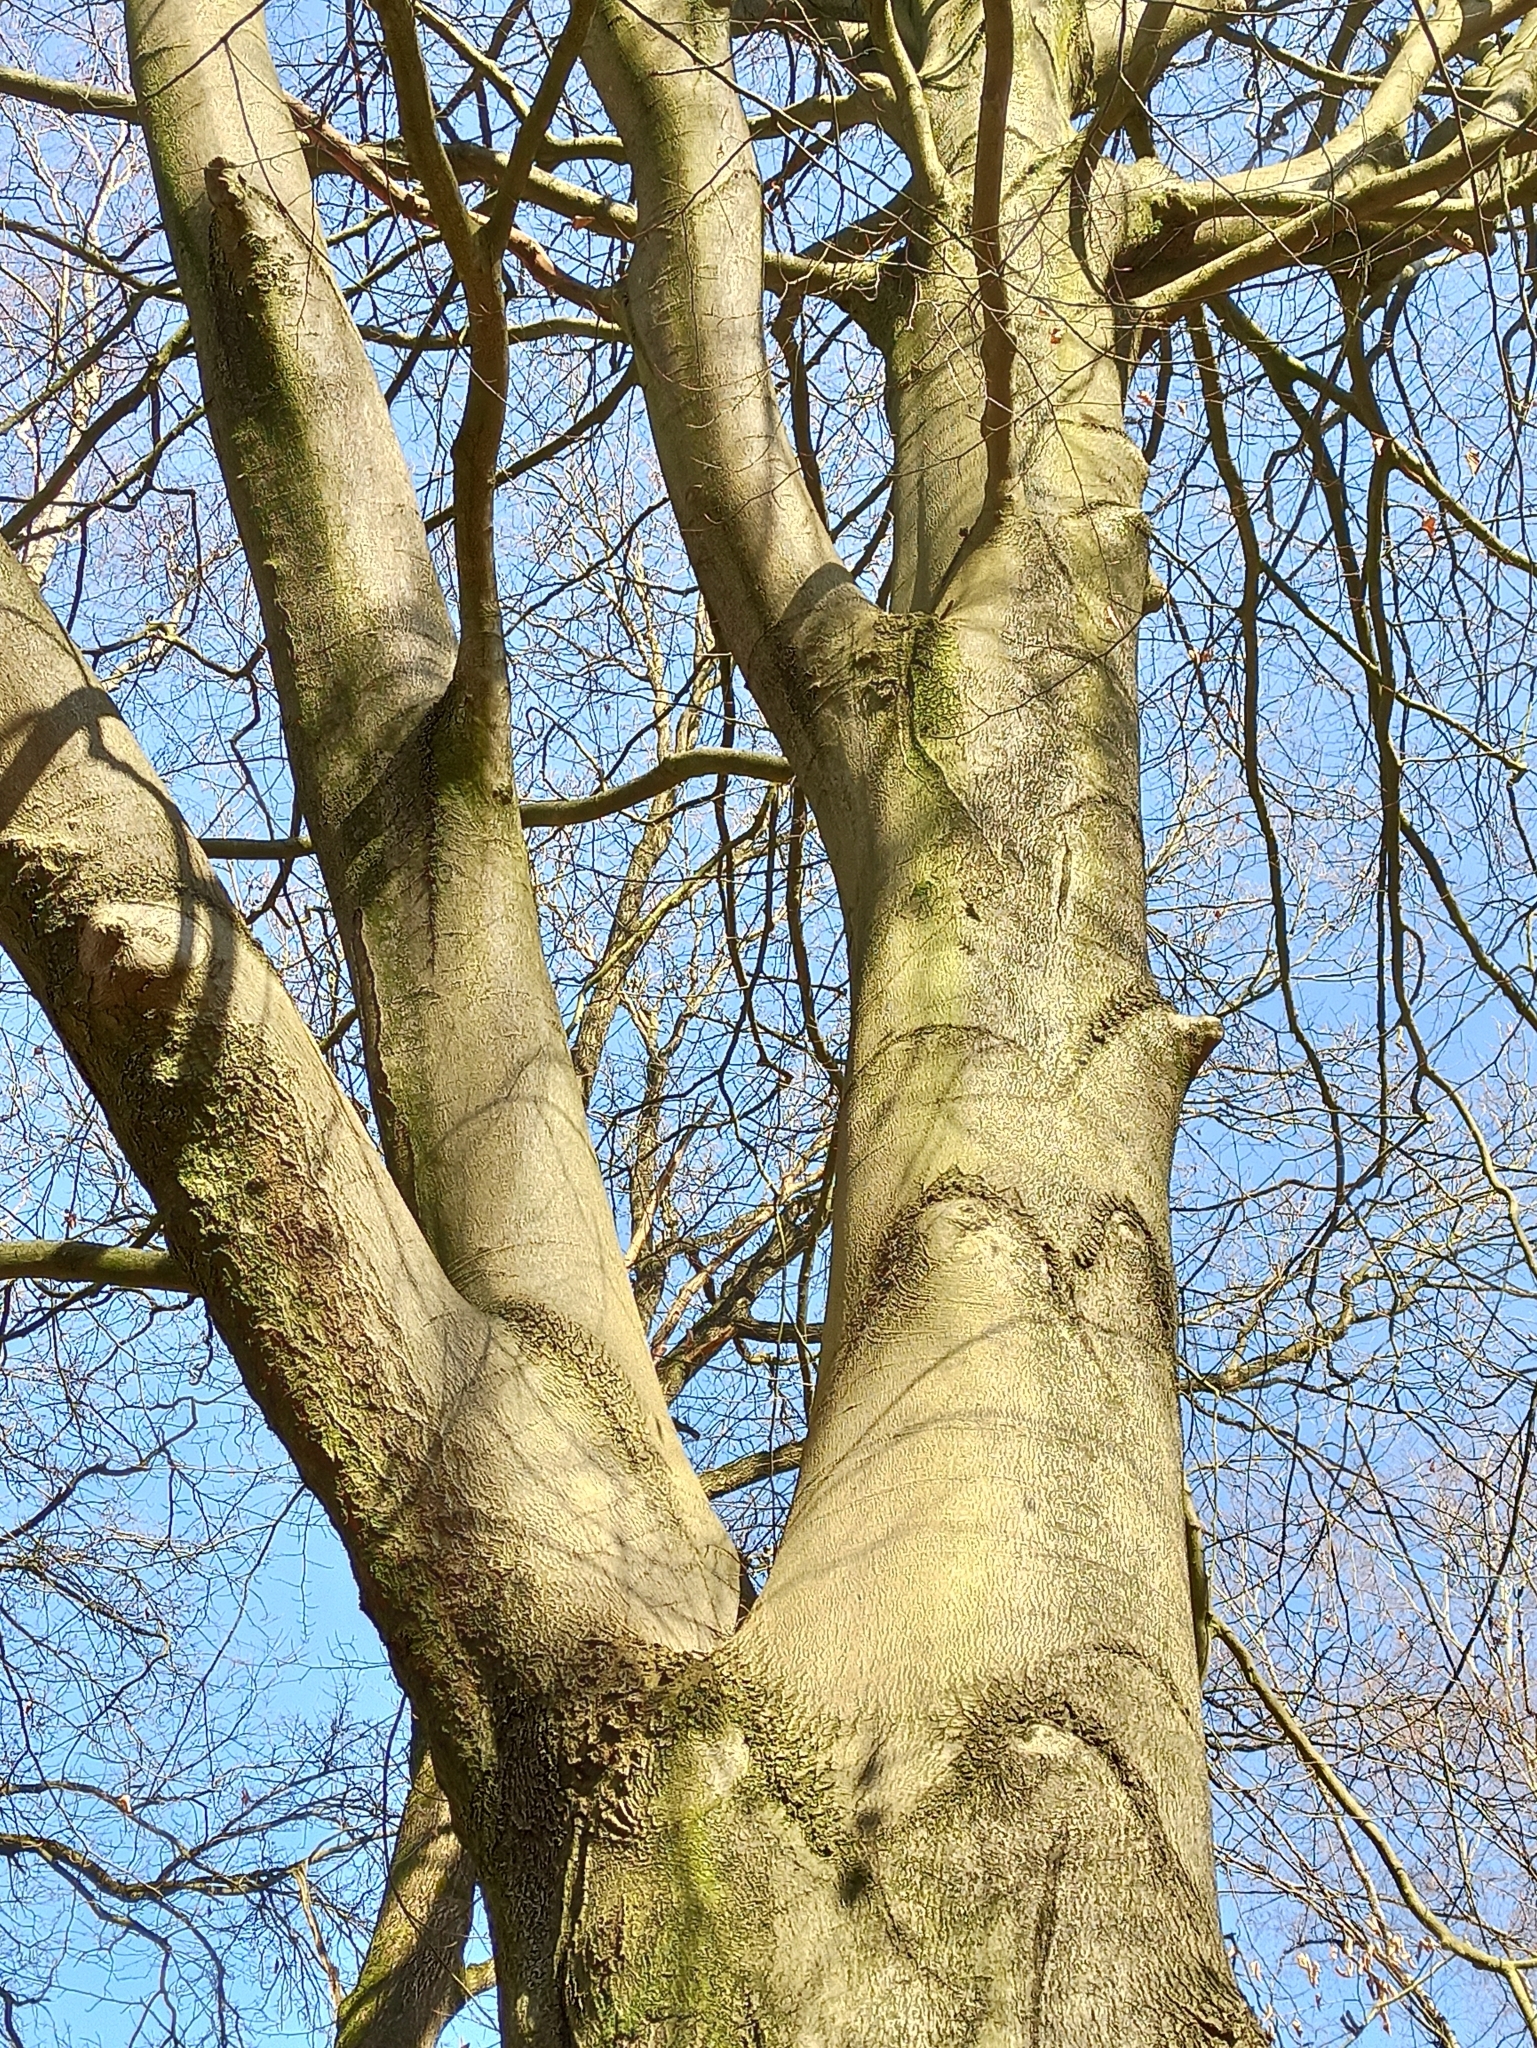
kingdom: Plantae
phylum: Tracheophyta
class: Magnoliopsida
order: Fagales
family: Fagaceae
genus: Fagus
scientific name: Fagus sylvatica
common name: Beech
